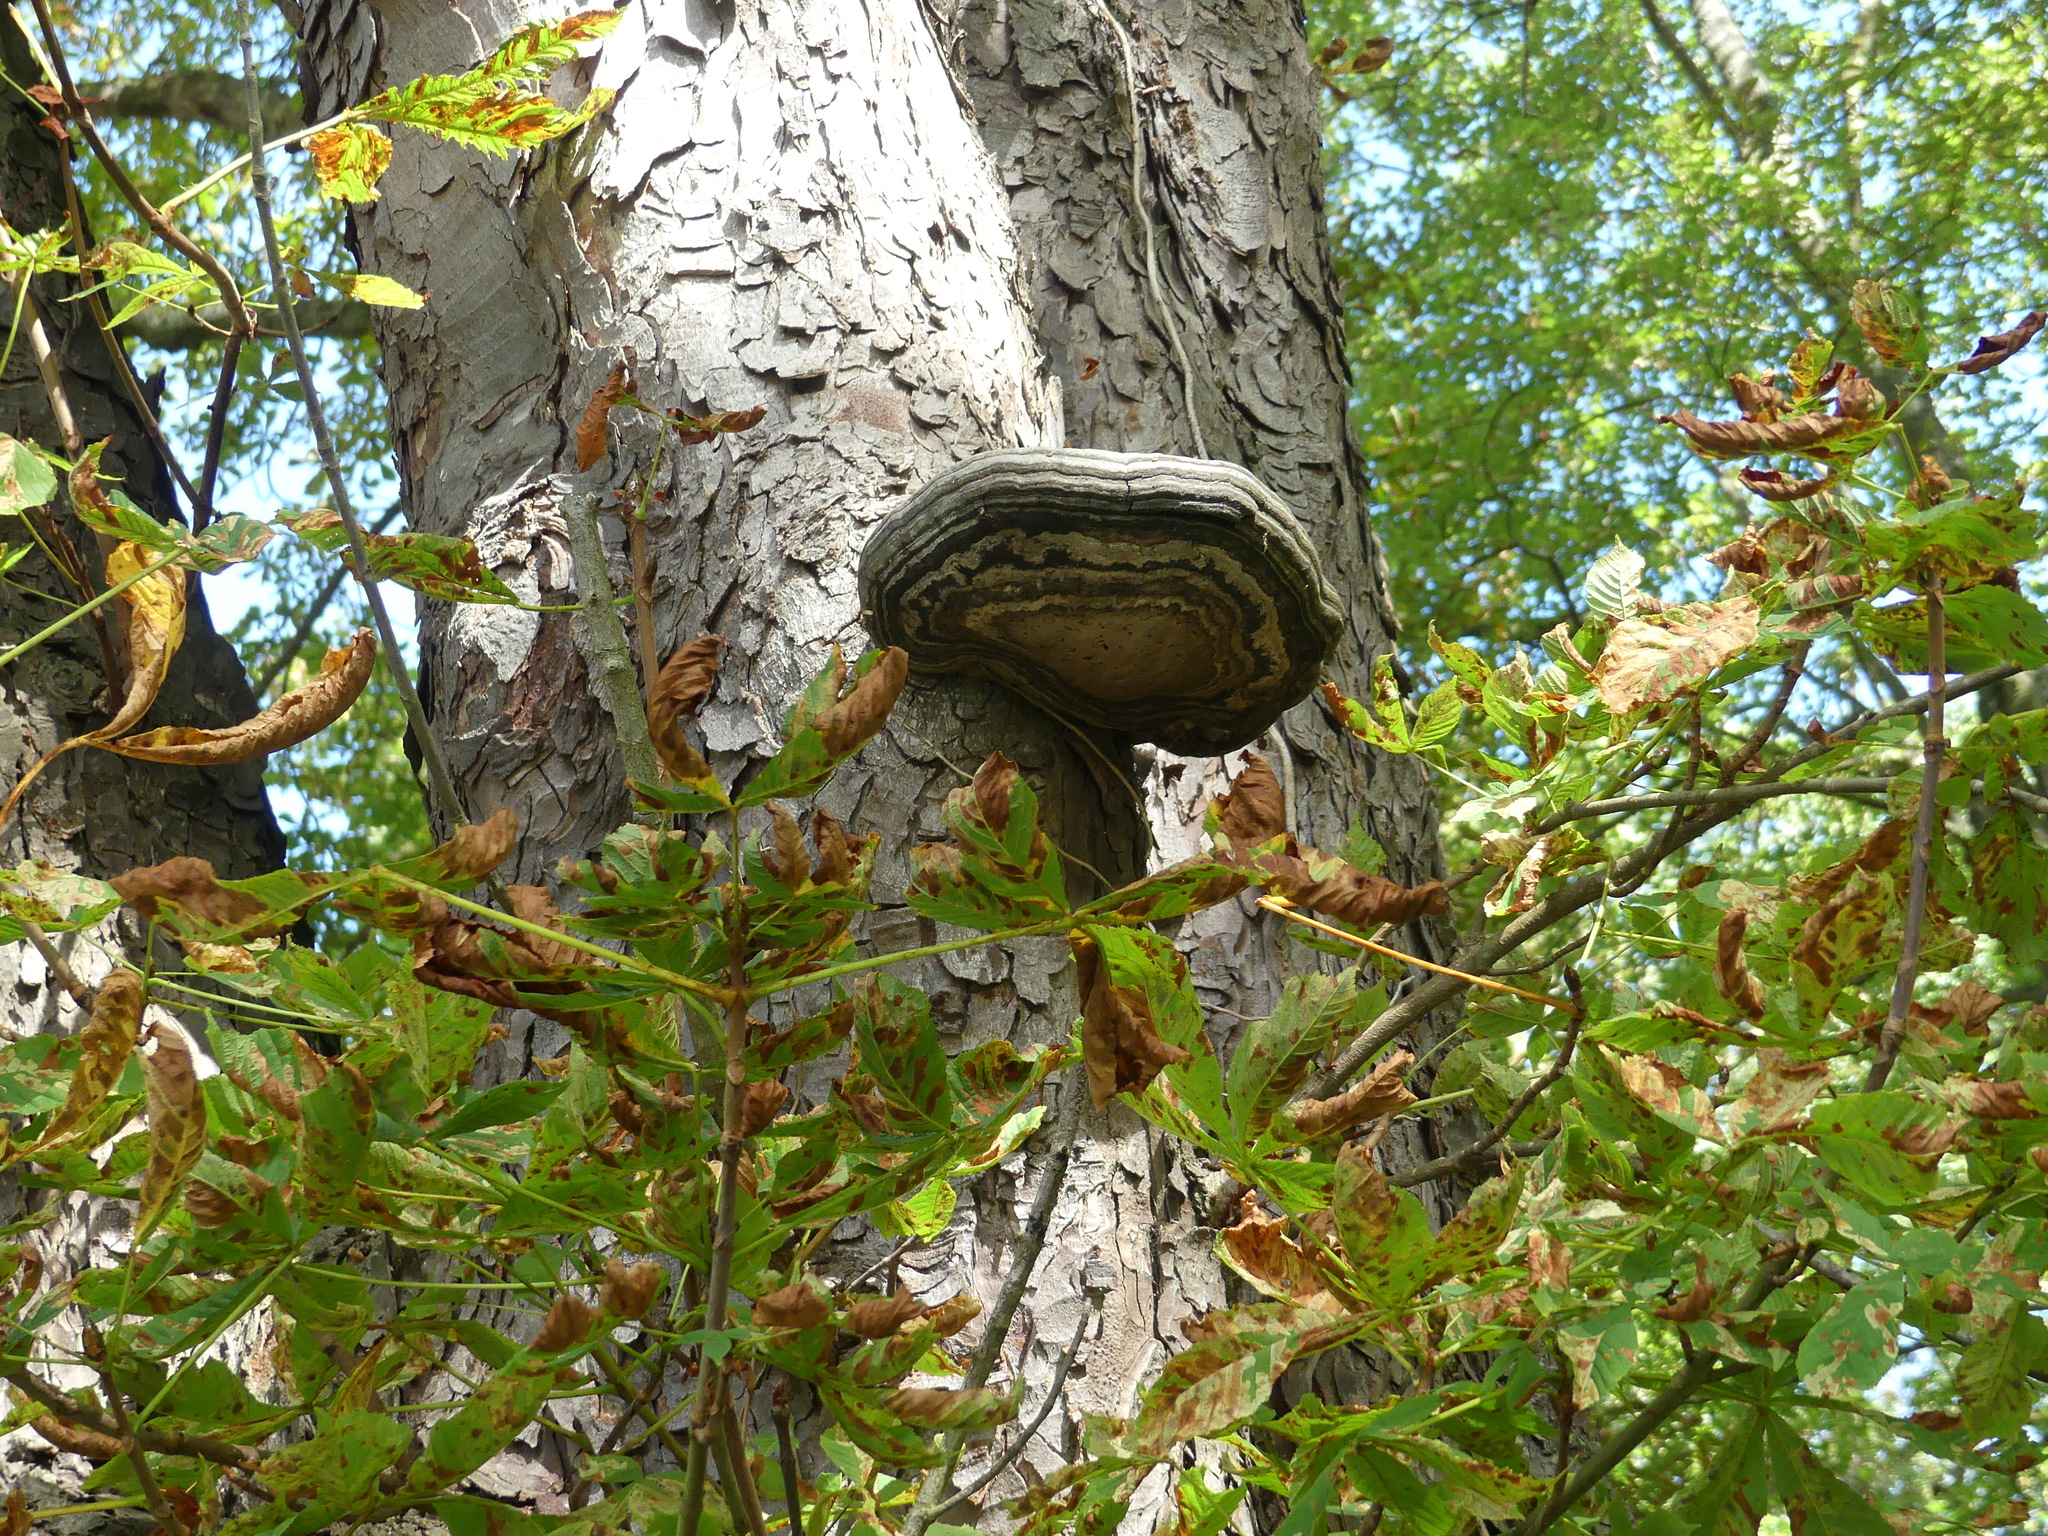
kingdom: Fungi
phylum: Basidiomycota
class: Agaricomycetes
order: Polyporales
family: Polyporaceae
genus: Fomes
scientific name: Fomes fomentarius
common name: Hoof fungus
